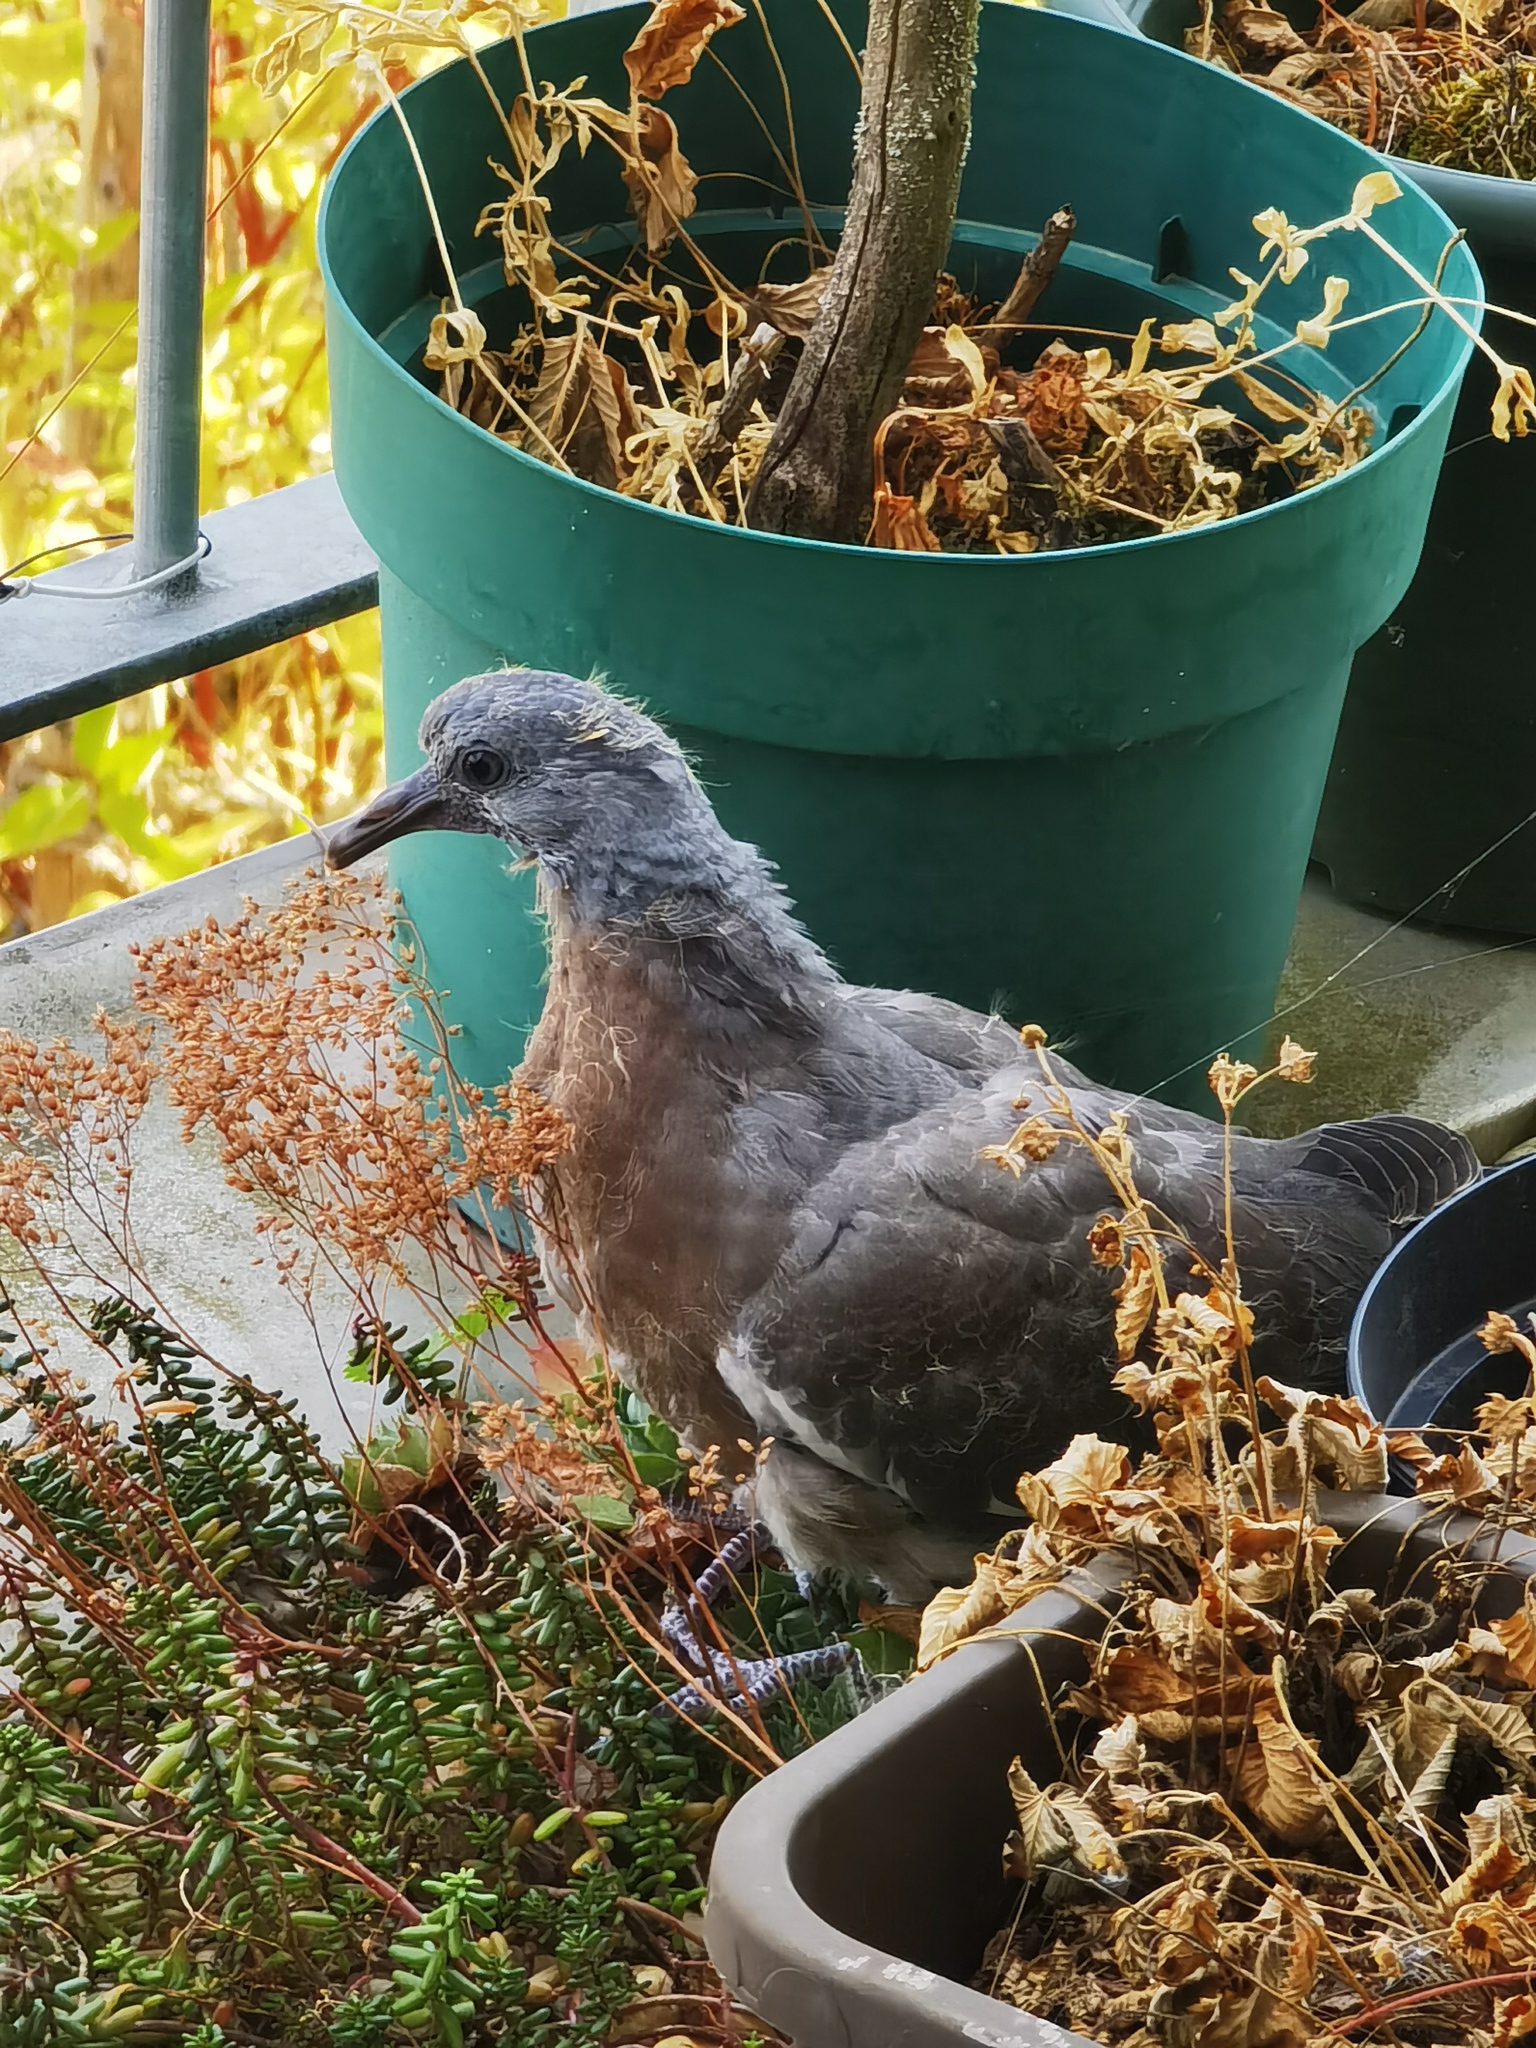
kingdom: Animalia
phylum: Chordata
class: Aves
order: Columbiformes
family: Columbidae
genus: Columba
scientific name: Columba palumbus
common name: Common wood pigeon
